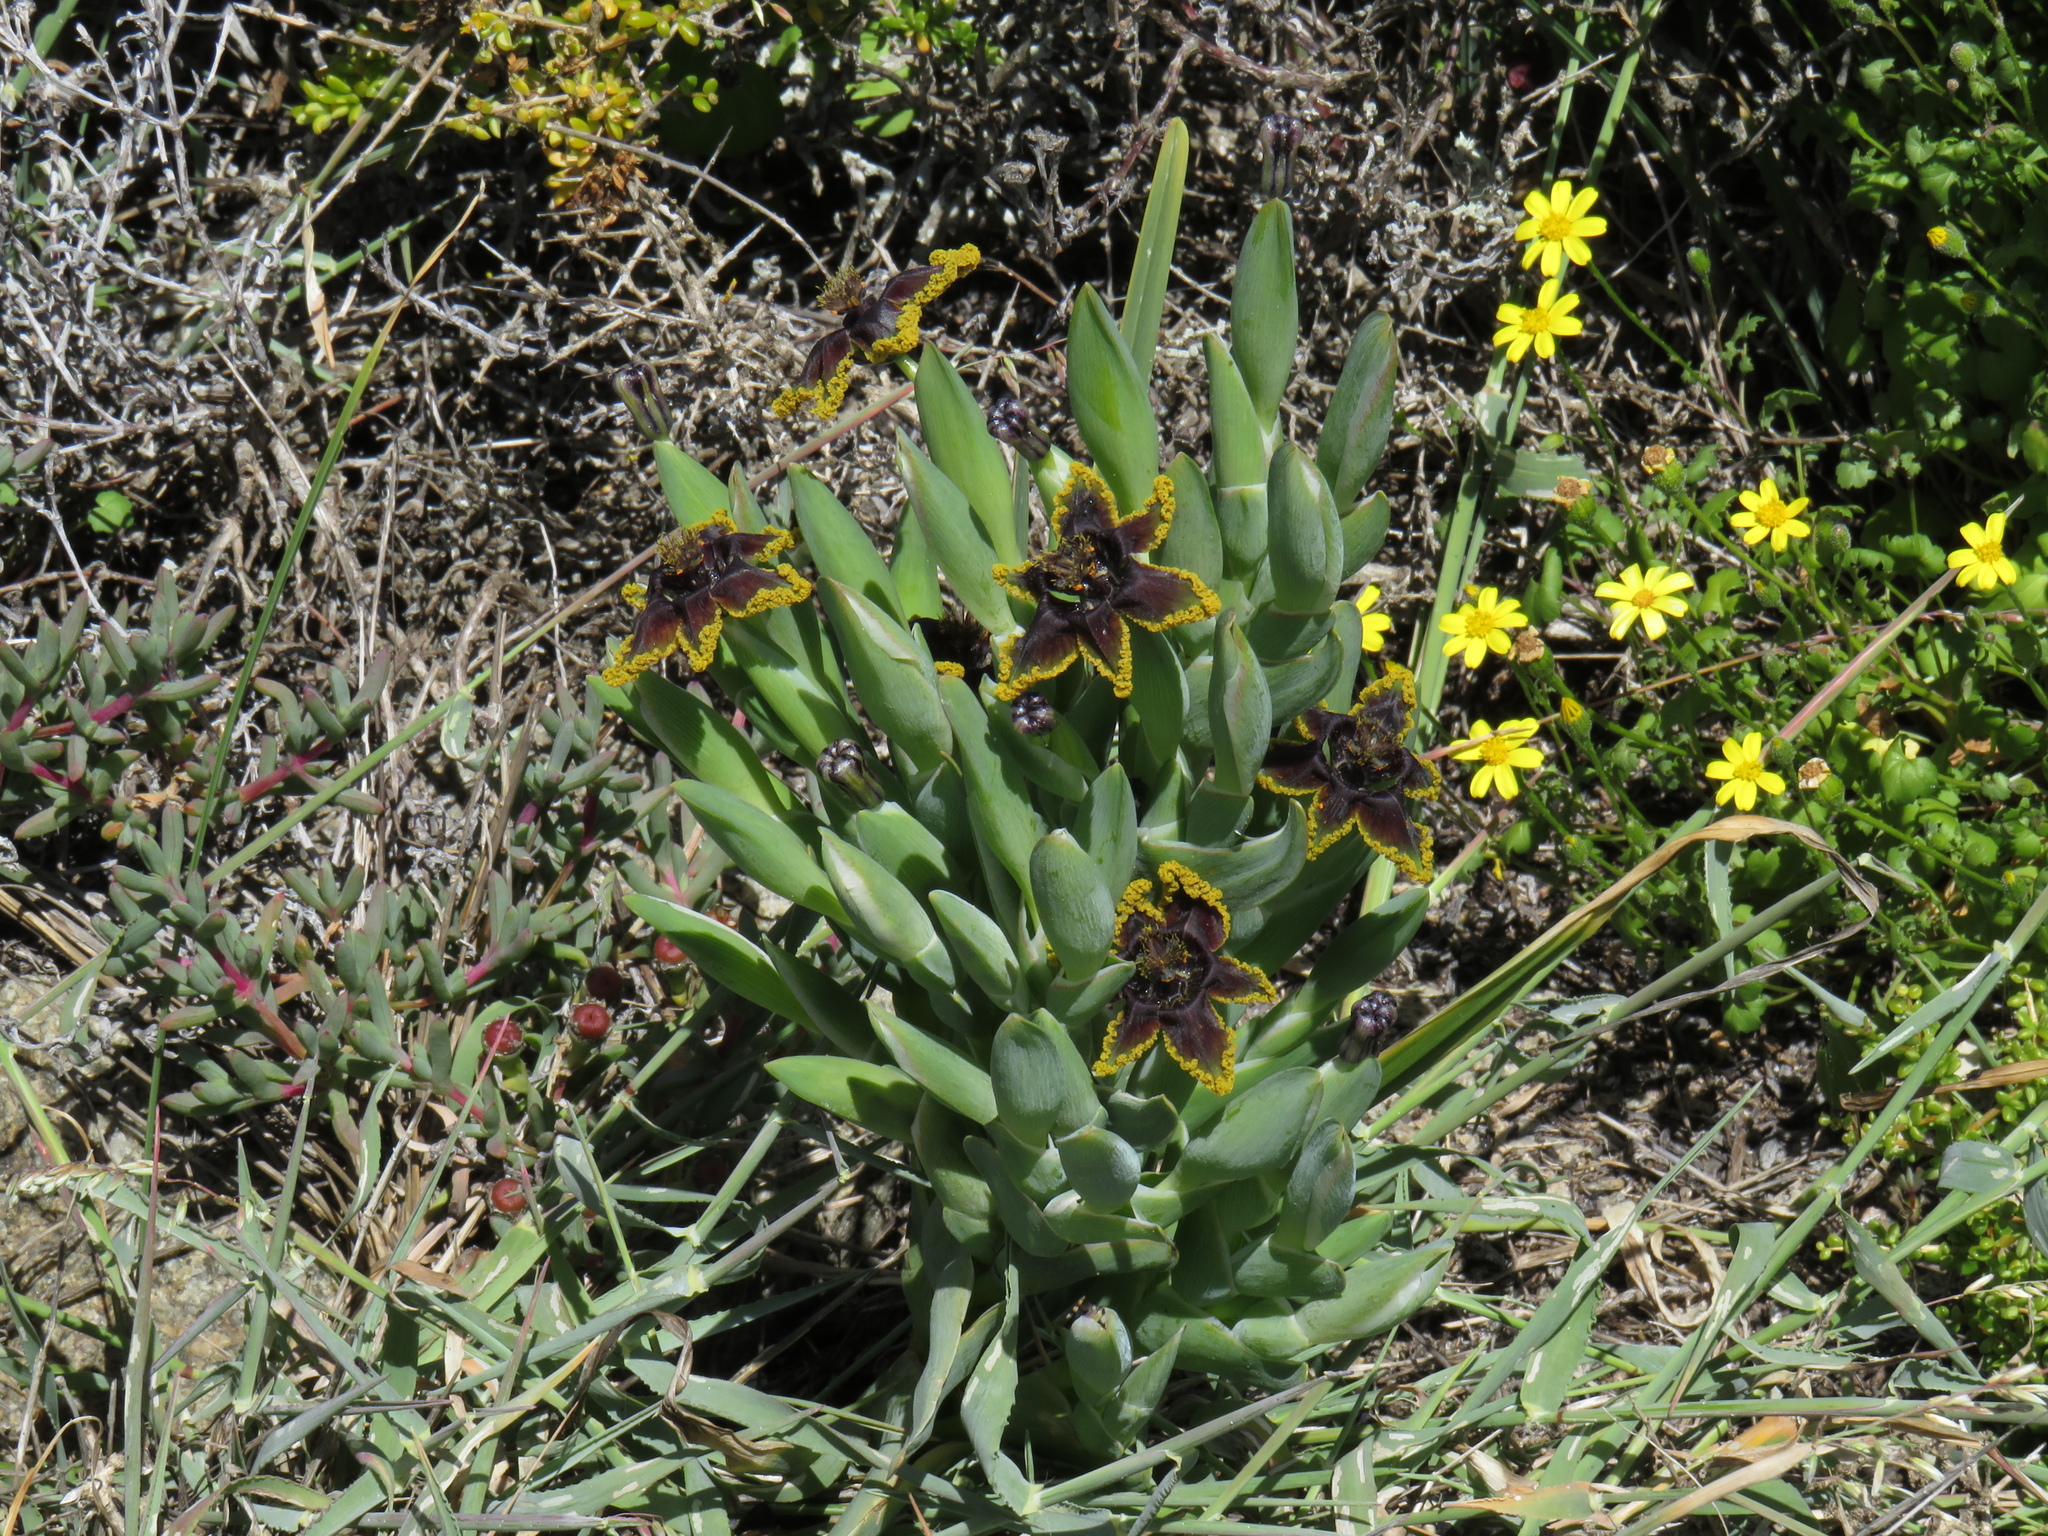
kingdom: Plantae
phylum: Tracheophyta
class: Liliopsida
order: Asparagales
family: Iridaceae
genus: Ferraria
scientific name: Ferraria crispa
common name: Black-flag
